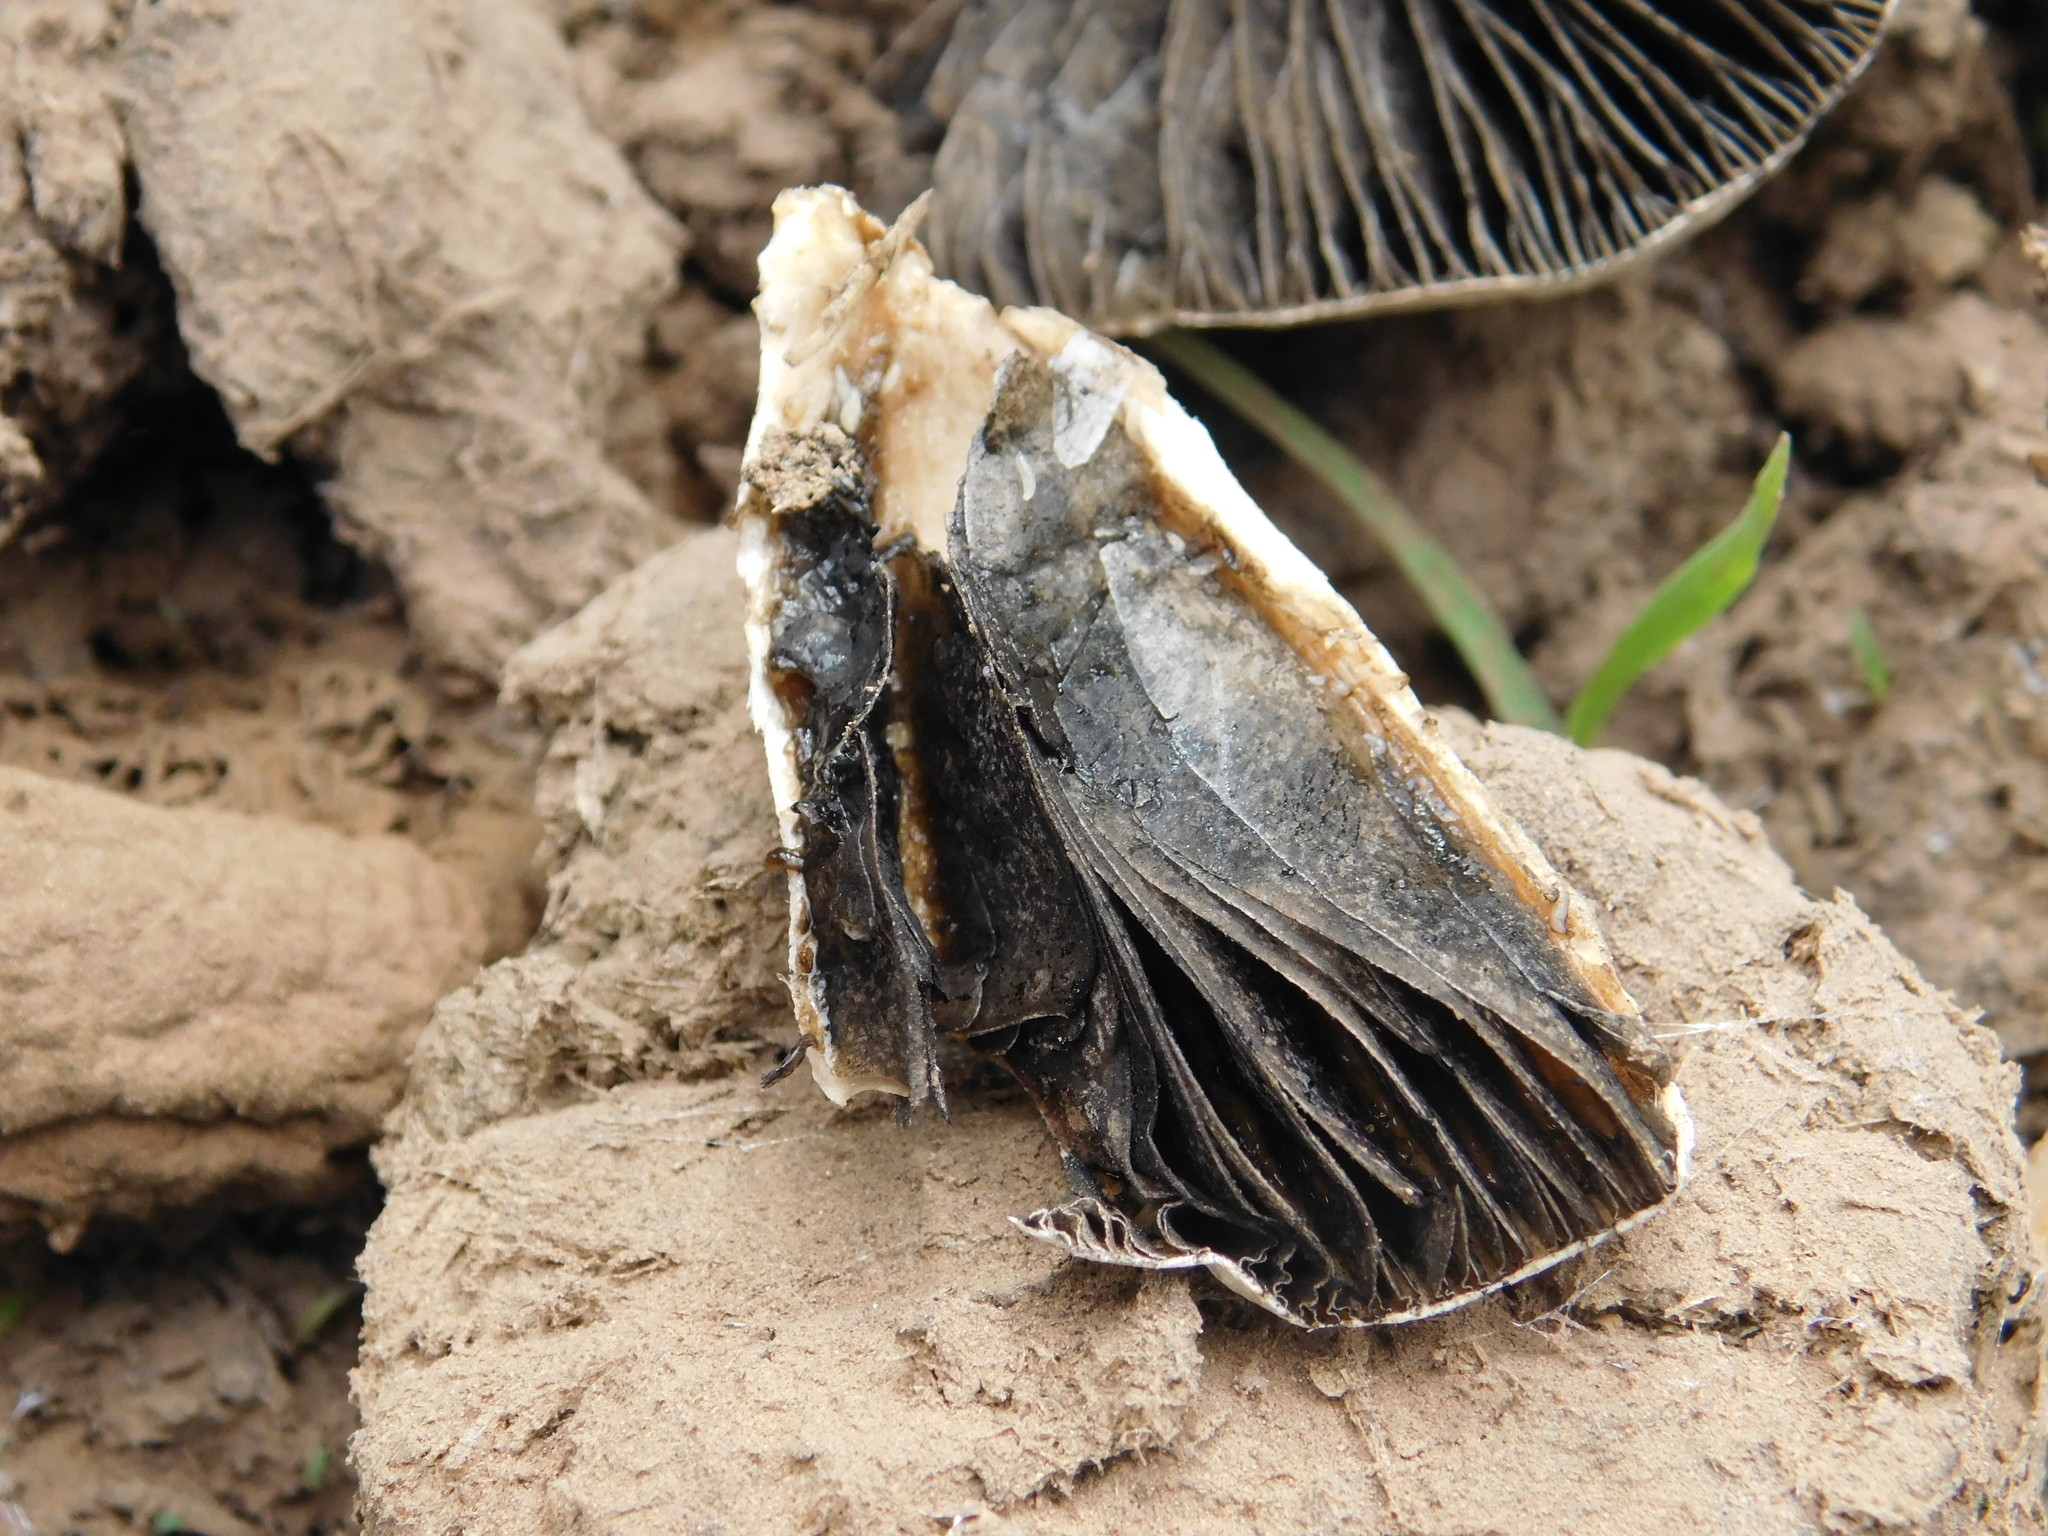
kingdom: Fungi
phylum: Basidiomycota
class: Agaricomycetes
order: Agaricales
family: Bolbitiaceae
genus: Panaeolus
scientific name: Panaeolus antillarum
